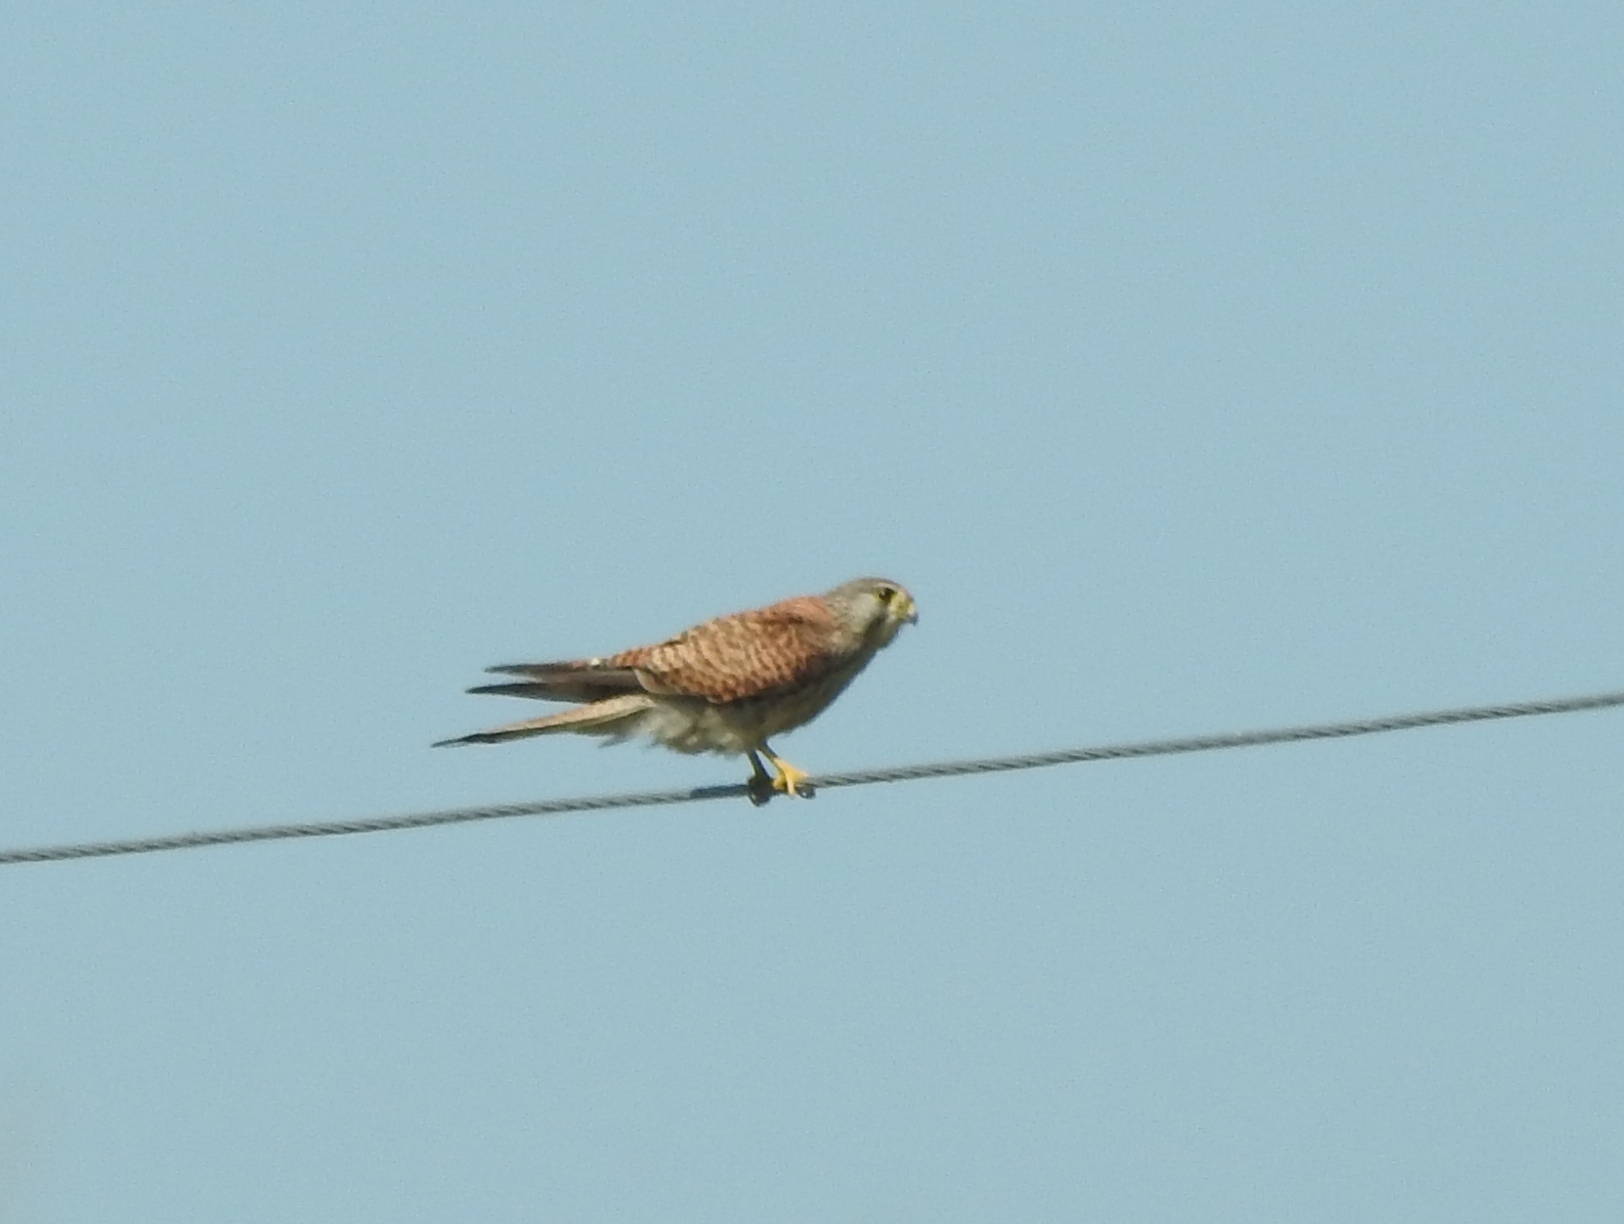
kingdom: Animalia
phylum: Chordata
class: Aves
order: Falconiformes
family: Falconidae
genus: Falco
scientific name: Falco tinnunculus
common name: Common kestrel
